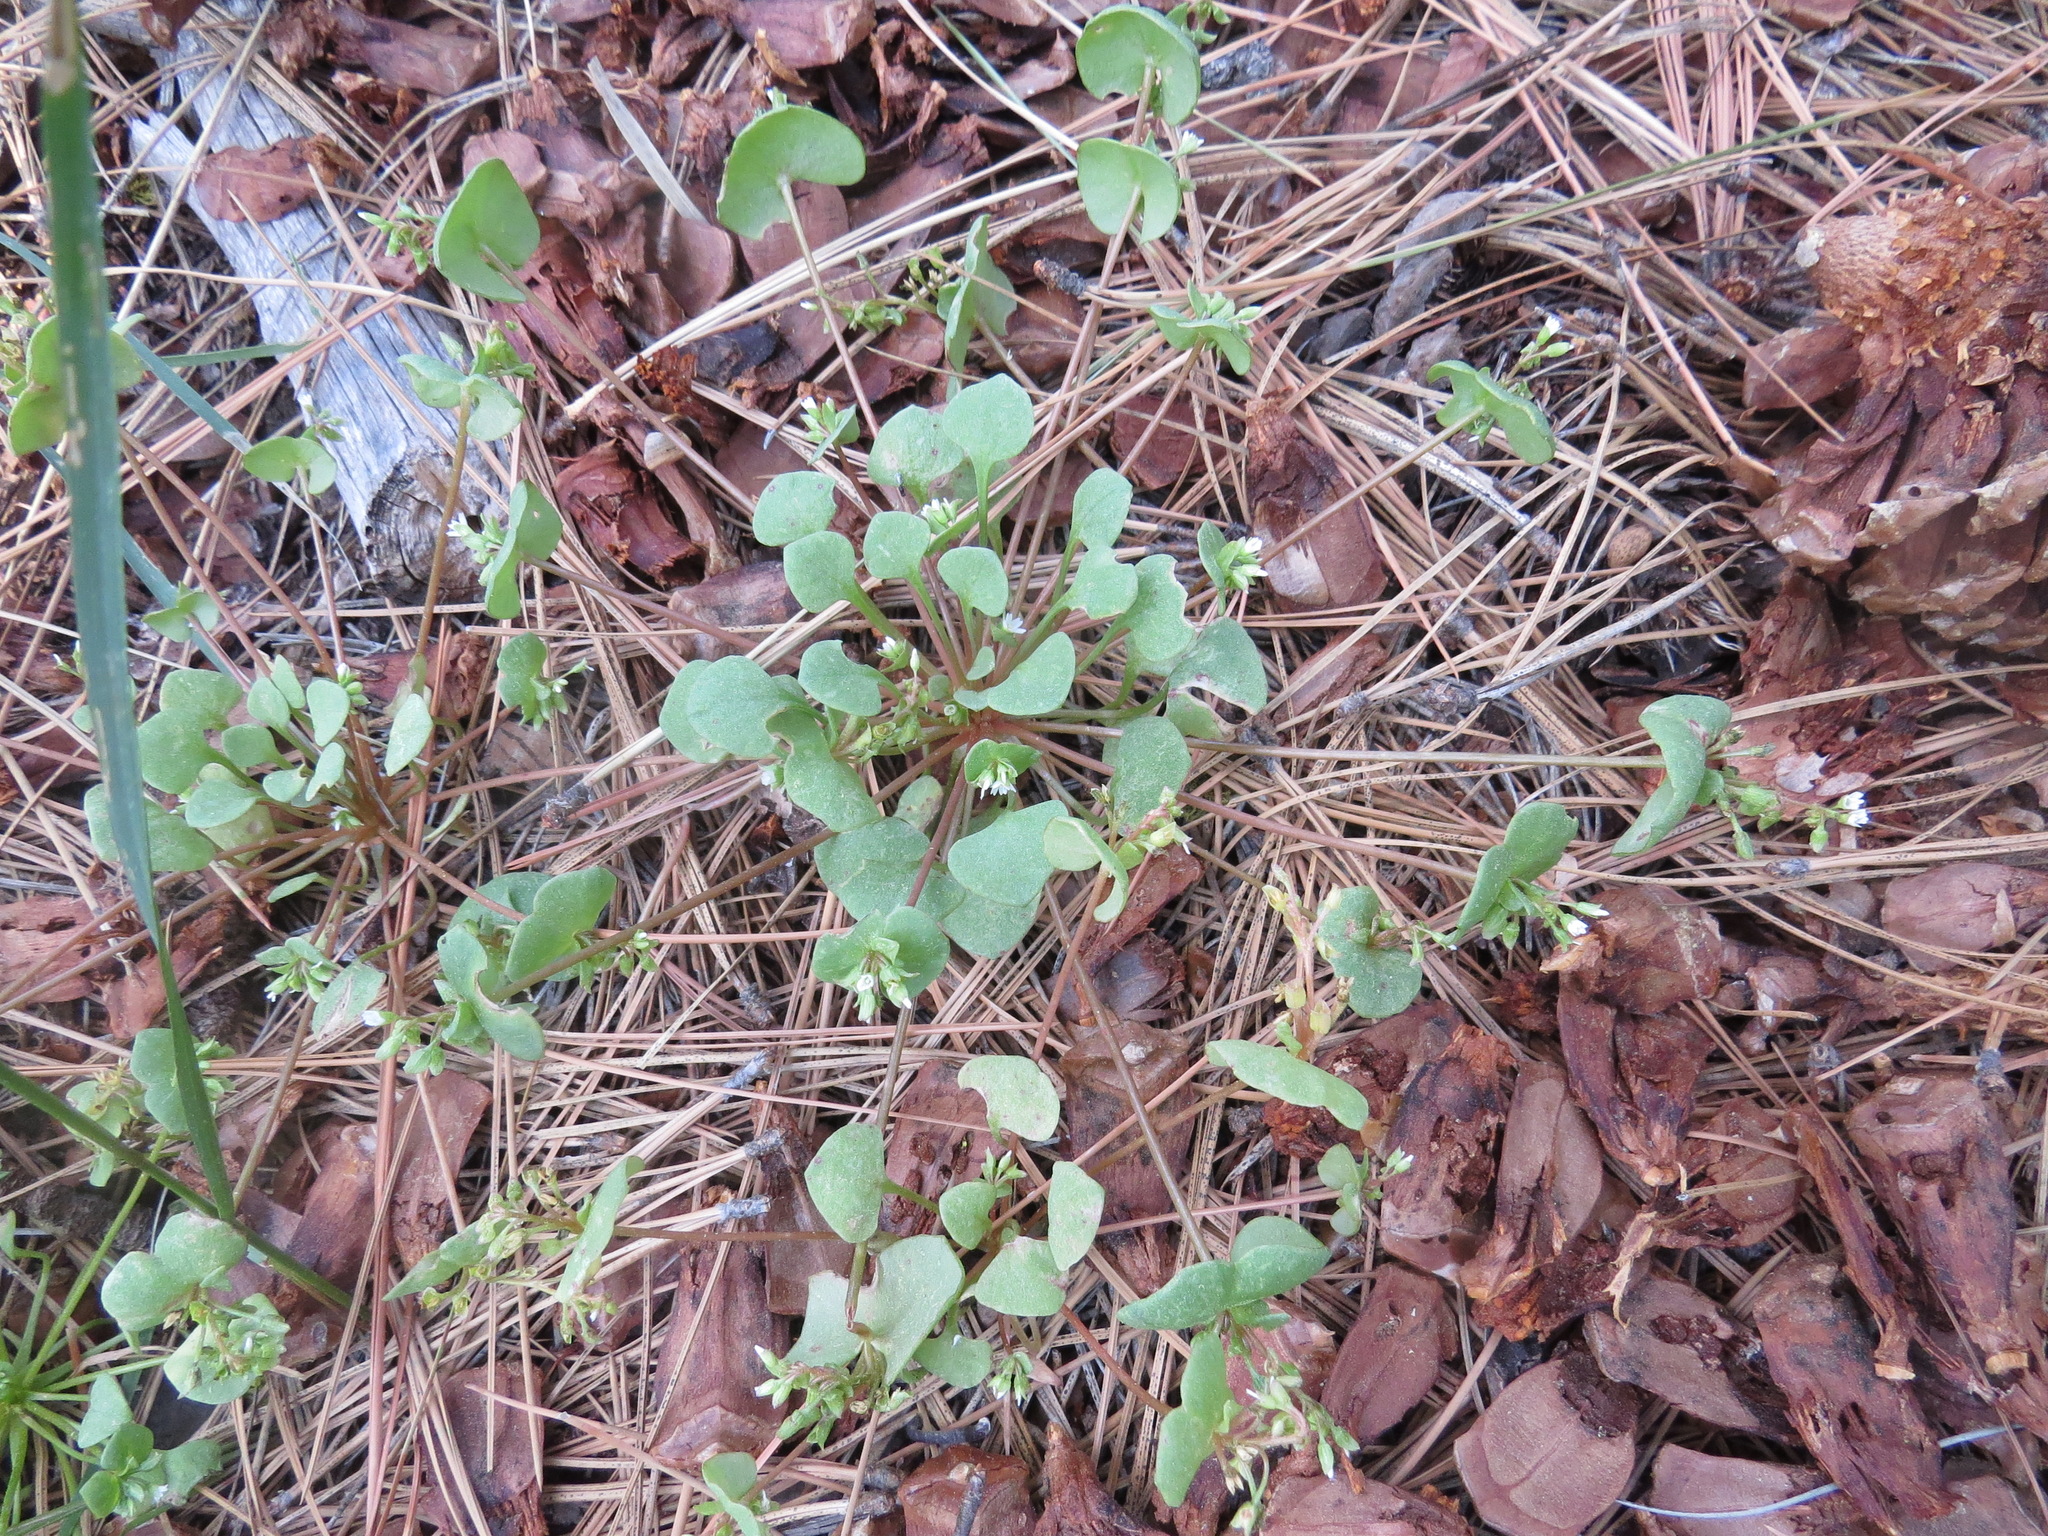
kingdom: Plantae
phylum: Tracheophyta
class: Magnoliopsida
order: Caryophyllales
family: Montiaceae
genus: Claytonia
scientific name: Claytonia rubra
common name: Erubescent miner's-lettuce
